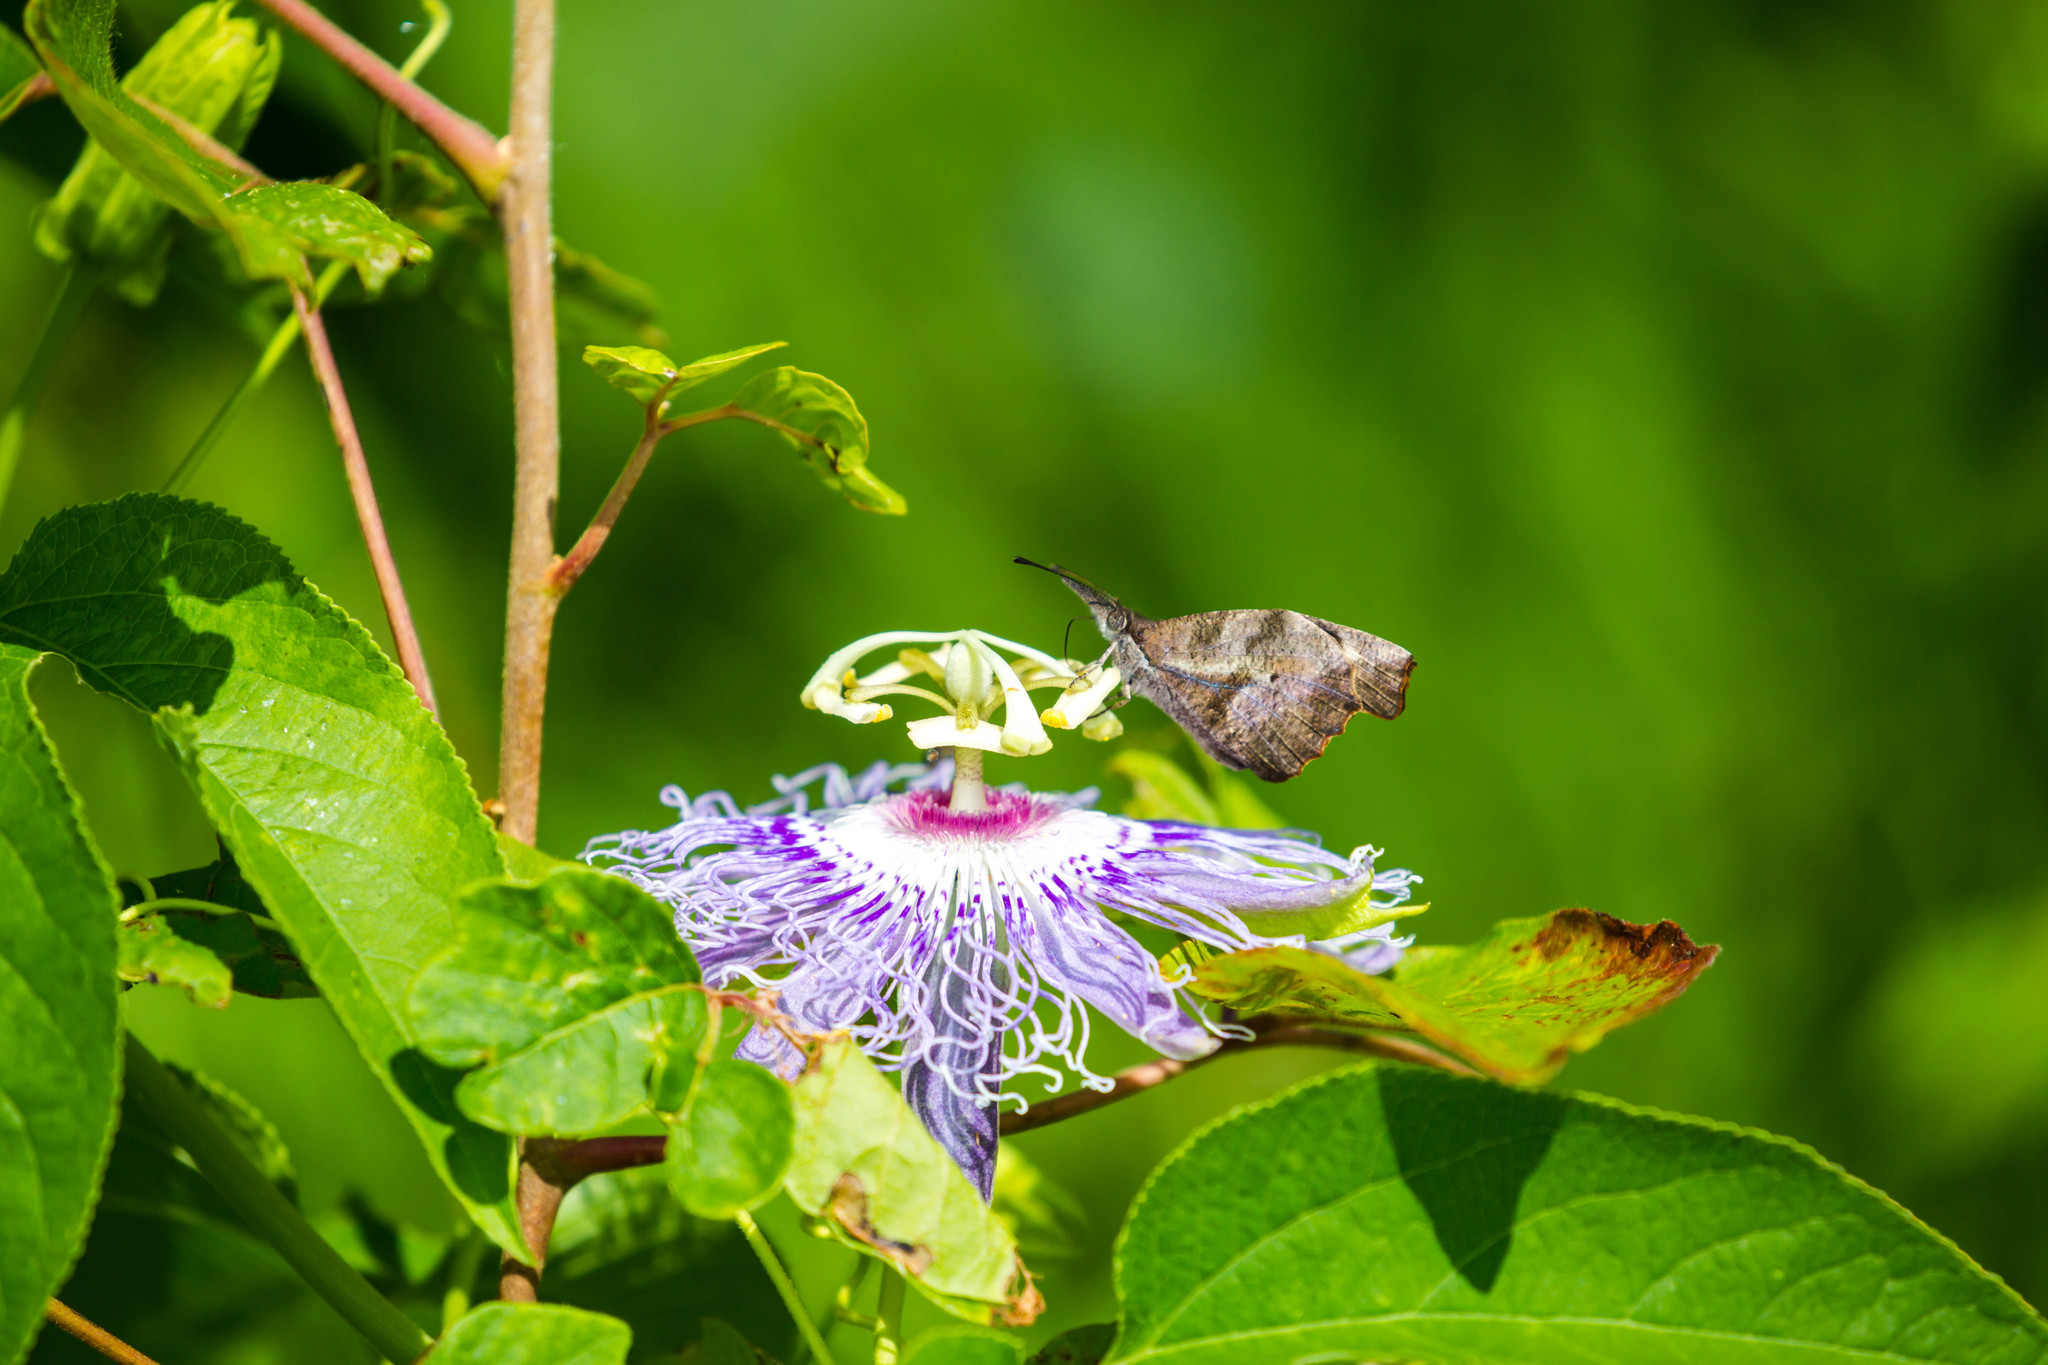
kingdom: Animalia
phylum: Arthropoda
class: Insecta
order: Lepidoptera
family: Nymphalidae
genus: Libytheana
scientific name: Libytheana carinenta
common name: American snout
